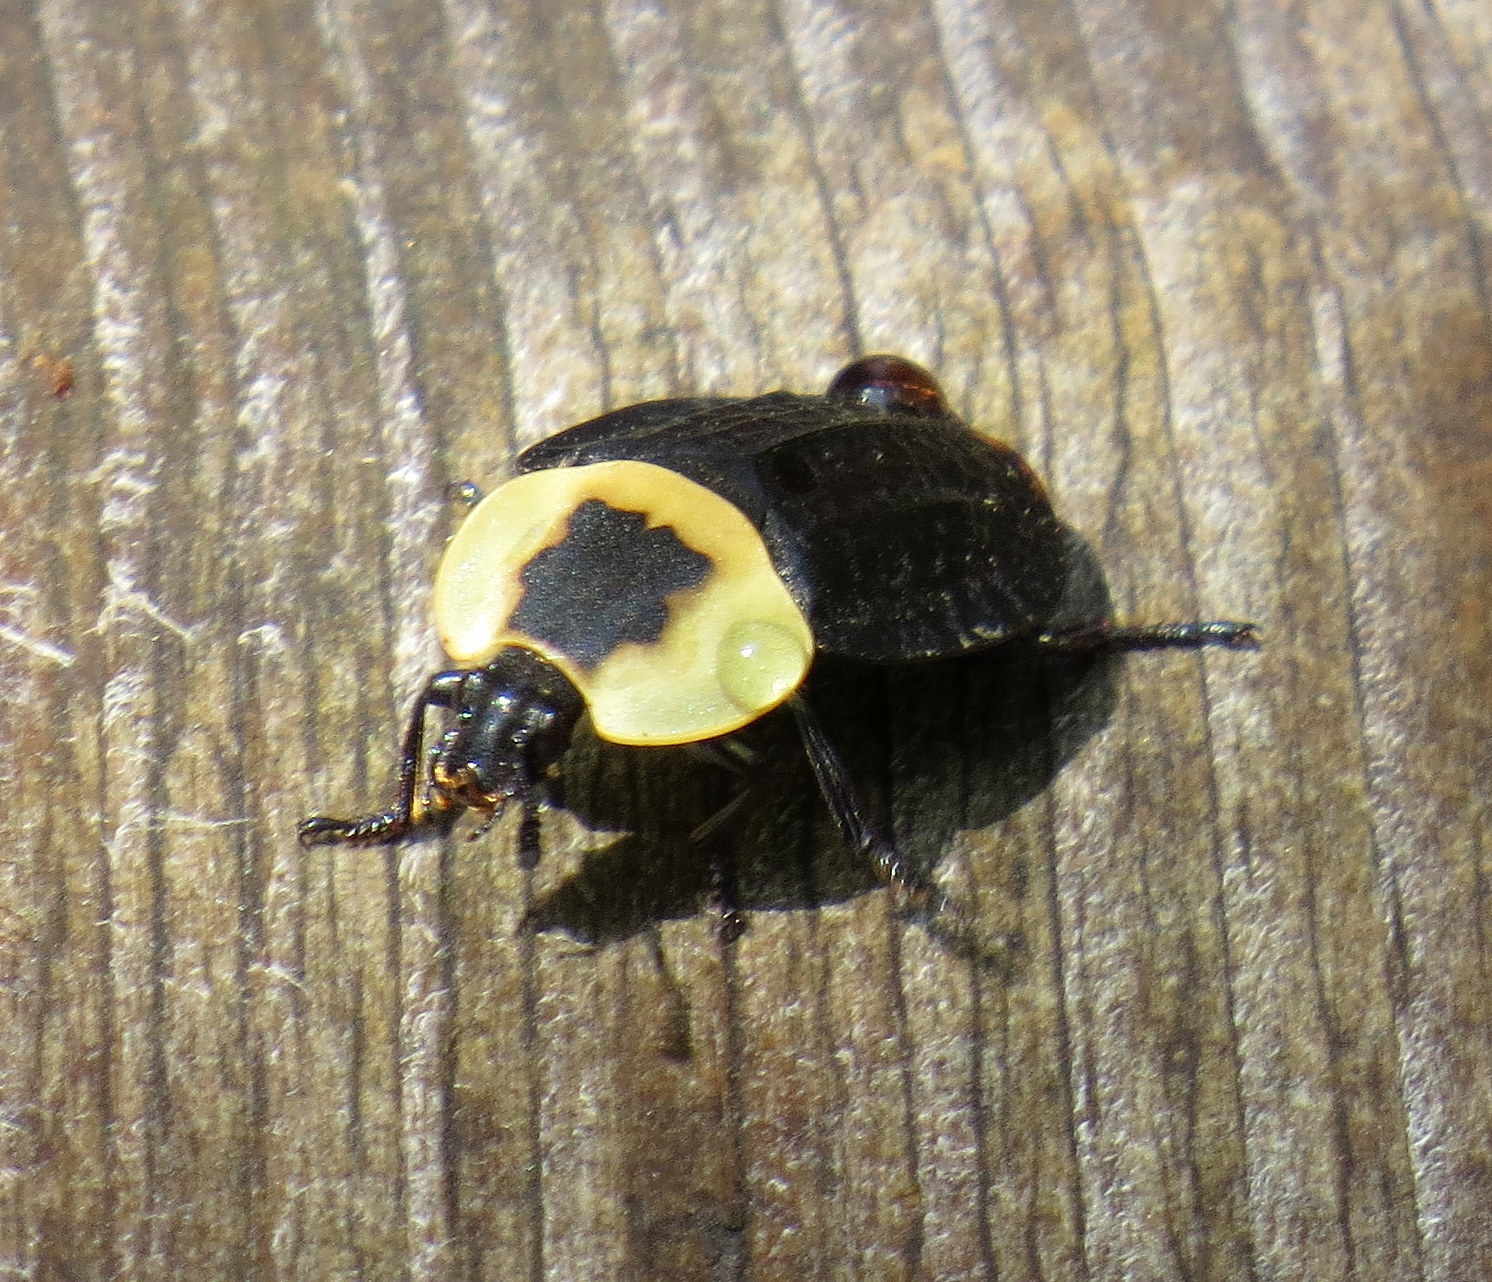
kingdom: Animalia
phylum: Arthropoda
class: Insecta
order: Coleoptera
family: Staphylinidae
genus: Necrophila
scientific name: Necrophila americana
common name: American carrion beetle
